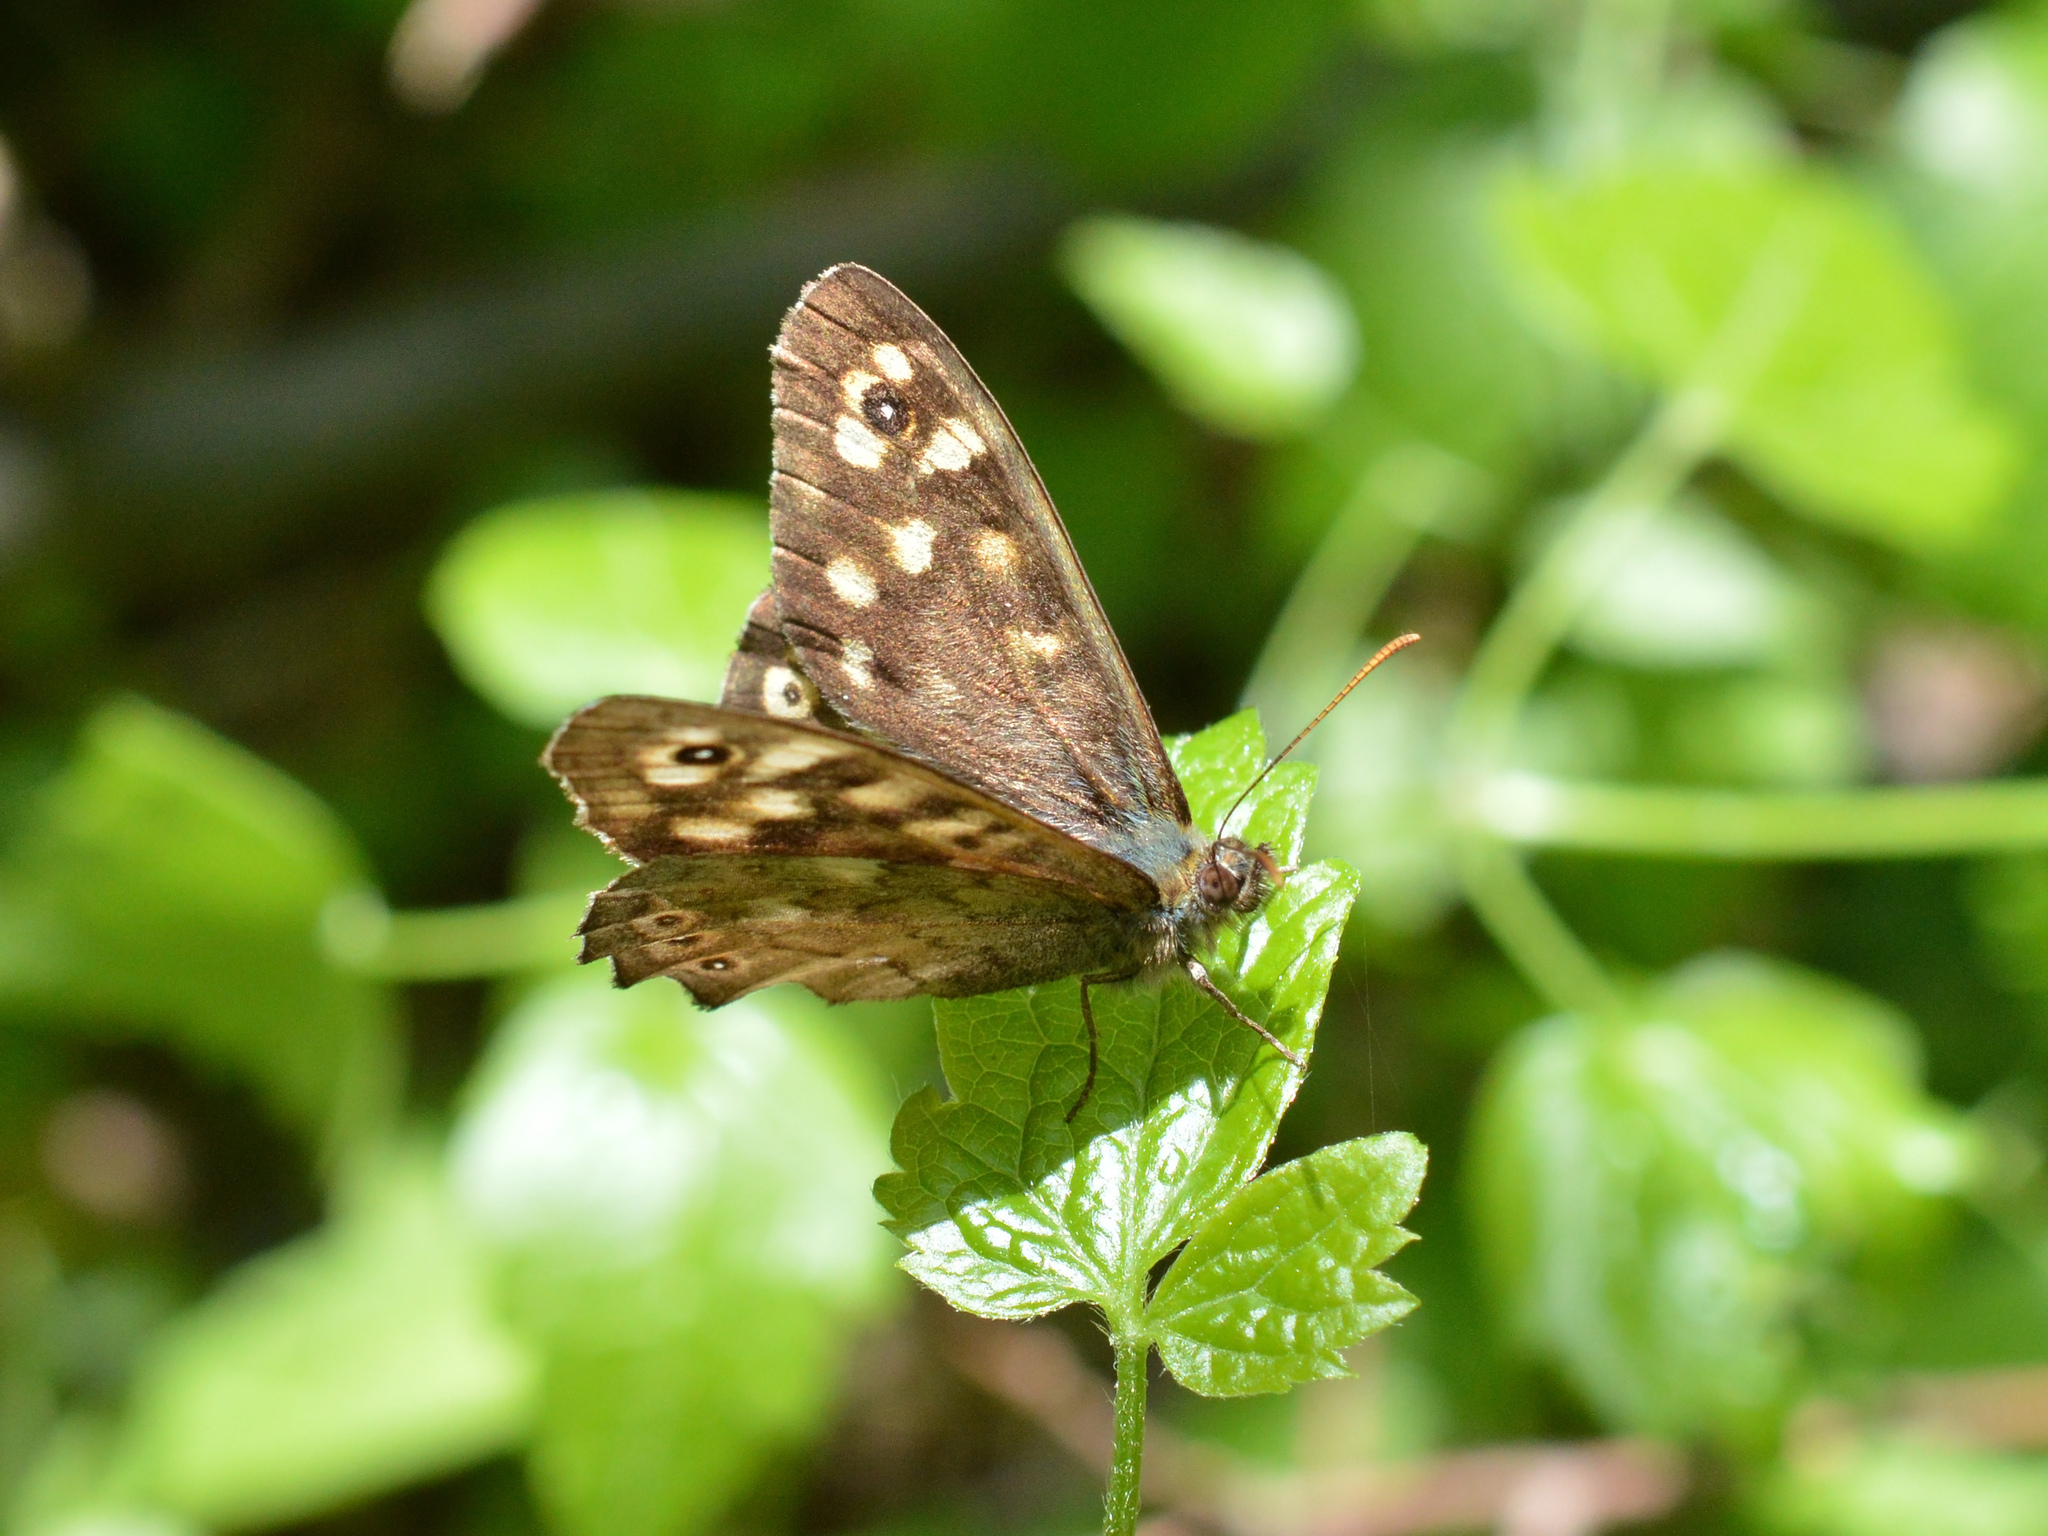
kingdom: Animalia
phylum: Arthropoda
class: Insecta
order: Lepidoptera
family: Nymphalidae
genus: Pararge
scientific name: Pararge aegeria
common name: Speckled wood
